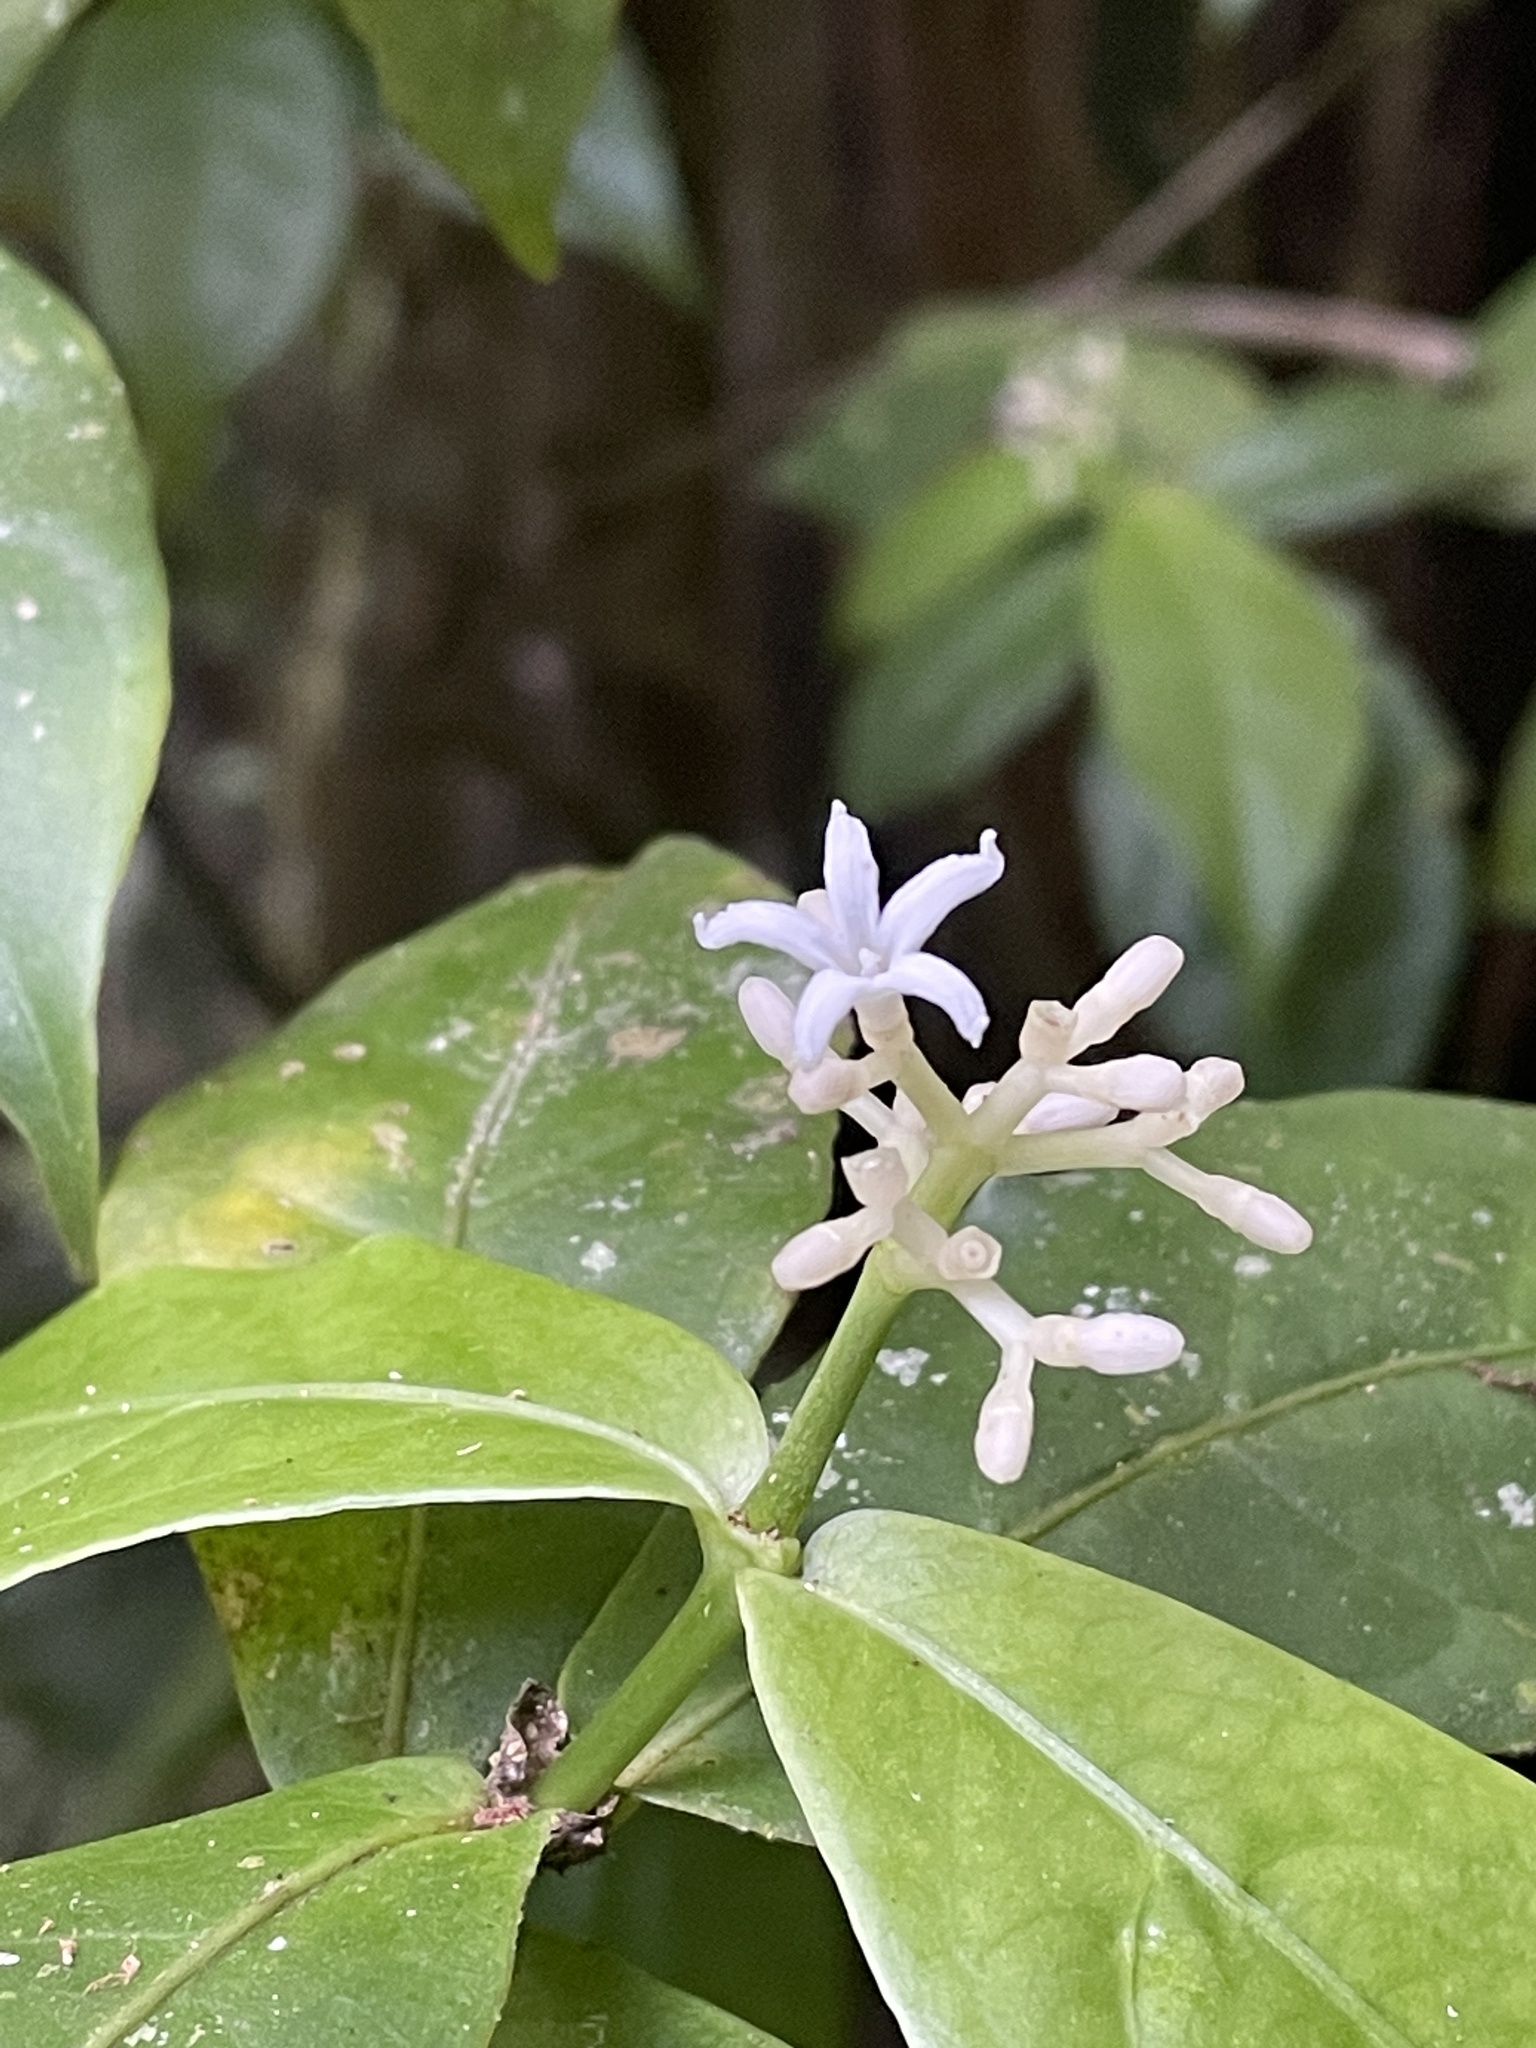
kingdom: Plantae
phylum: Tracheophyta
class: Magnoliopsida
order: Gentianales
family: Rubiaceae
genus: Rudgea
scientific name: Rudgea cornifolia
